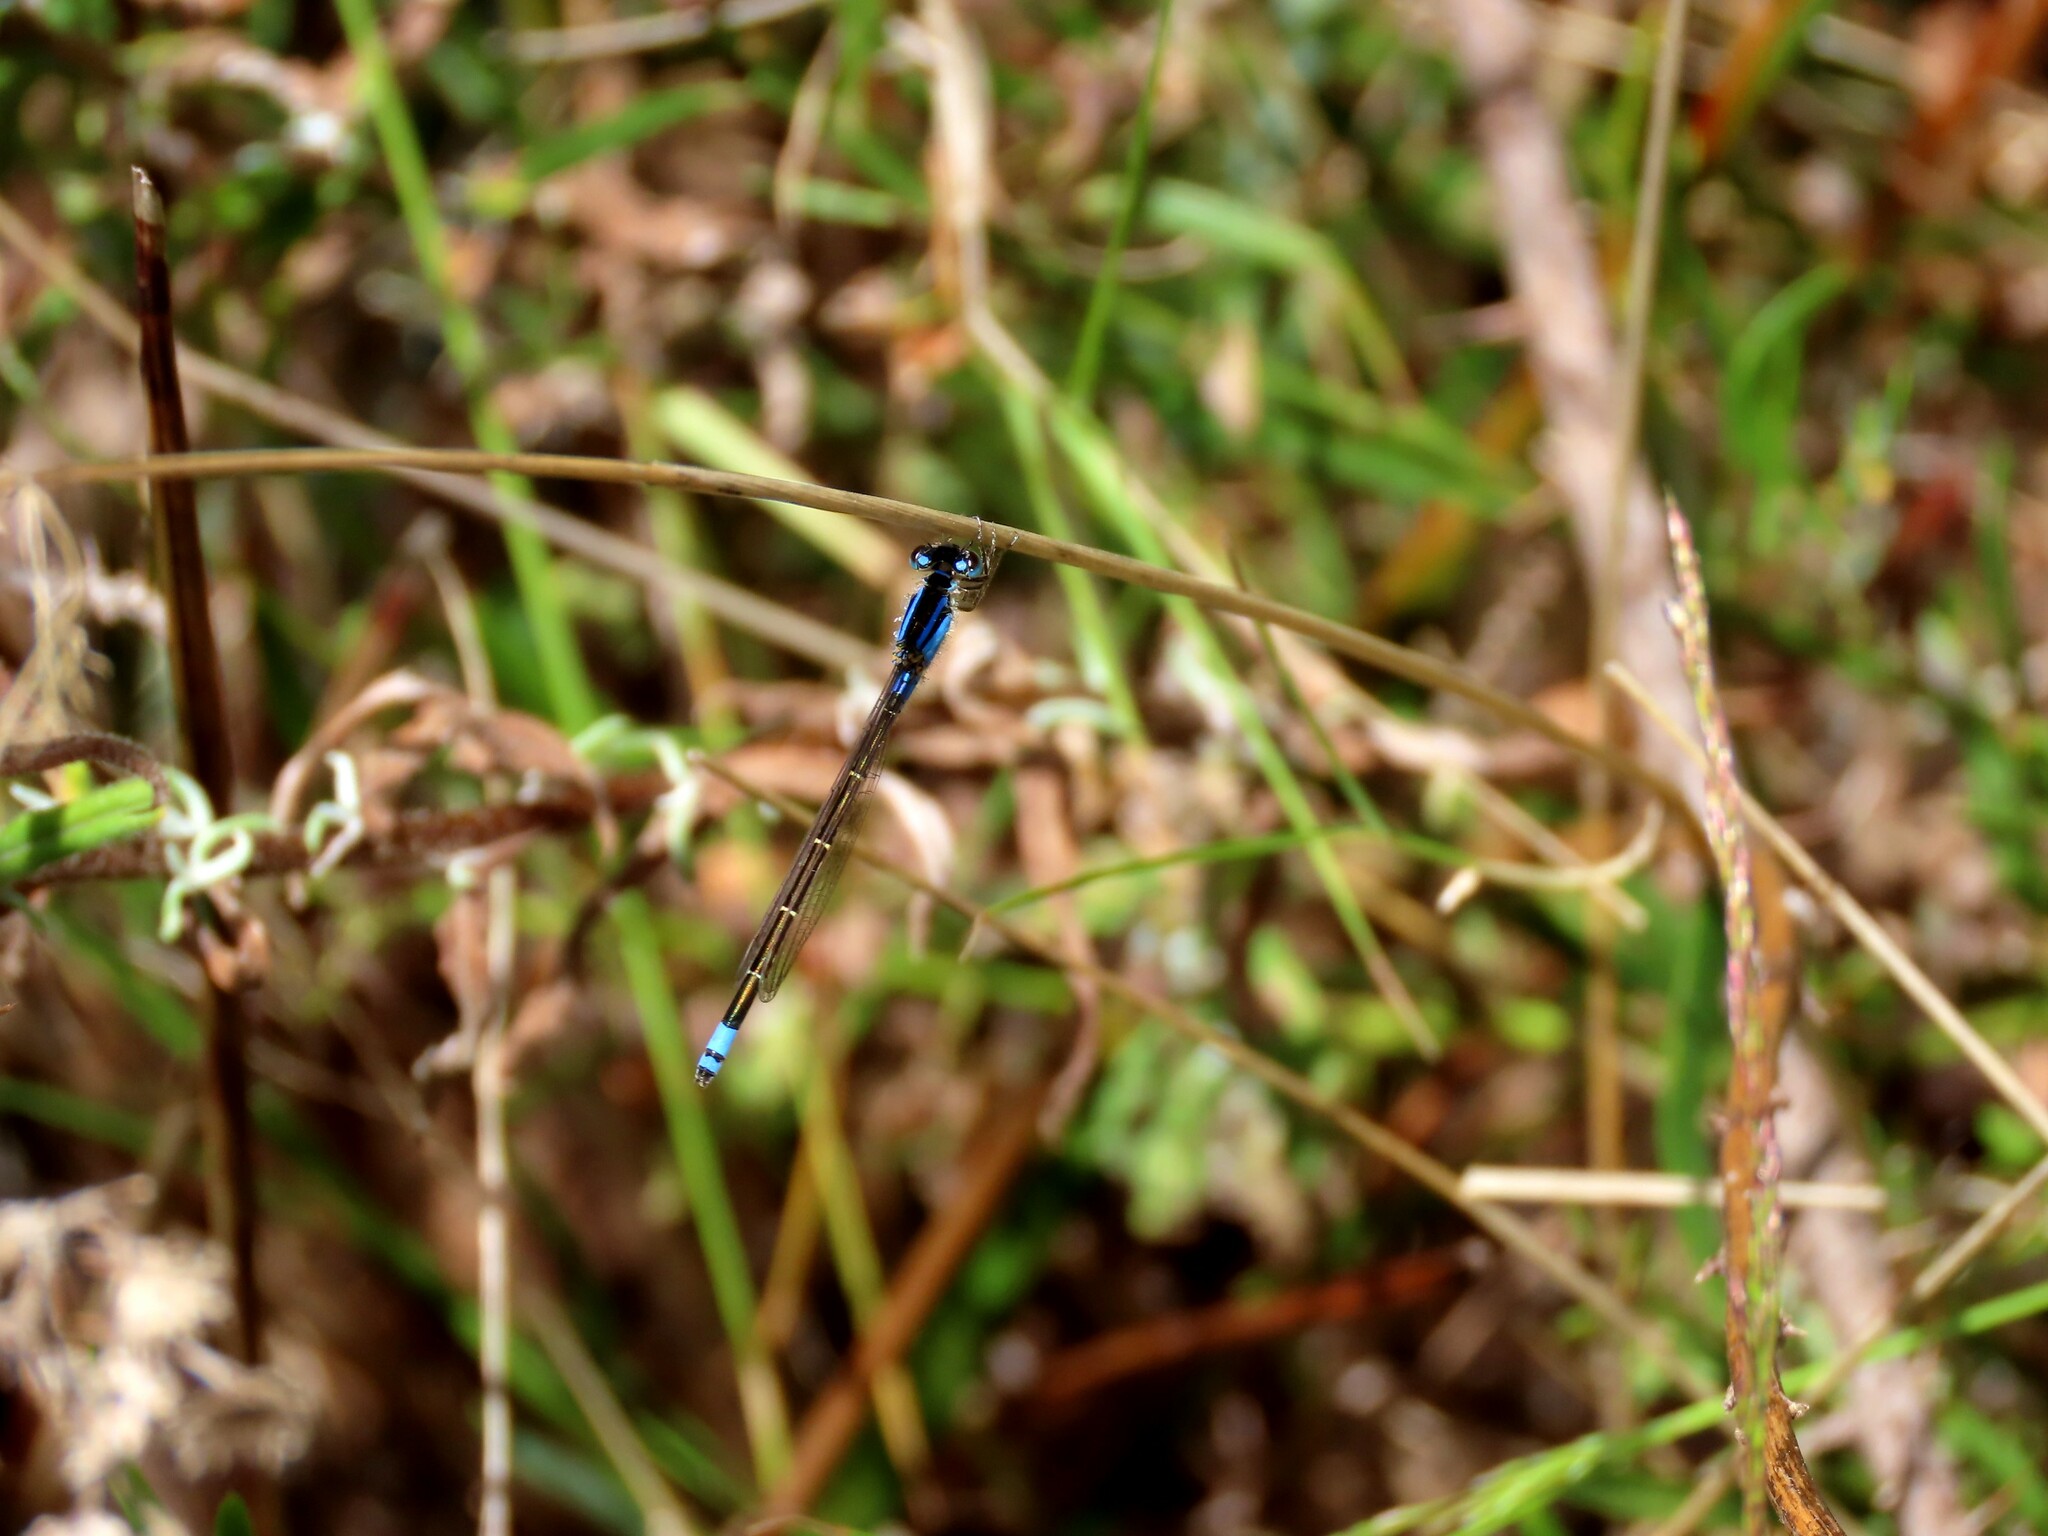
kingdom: Animalia
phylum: Arthropoda
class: Insecta
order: Odonata
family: Coenagrionidae
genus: Ischnura
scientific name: Ischnura heterosticta
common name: Common bluetail
